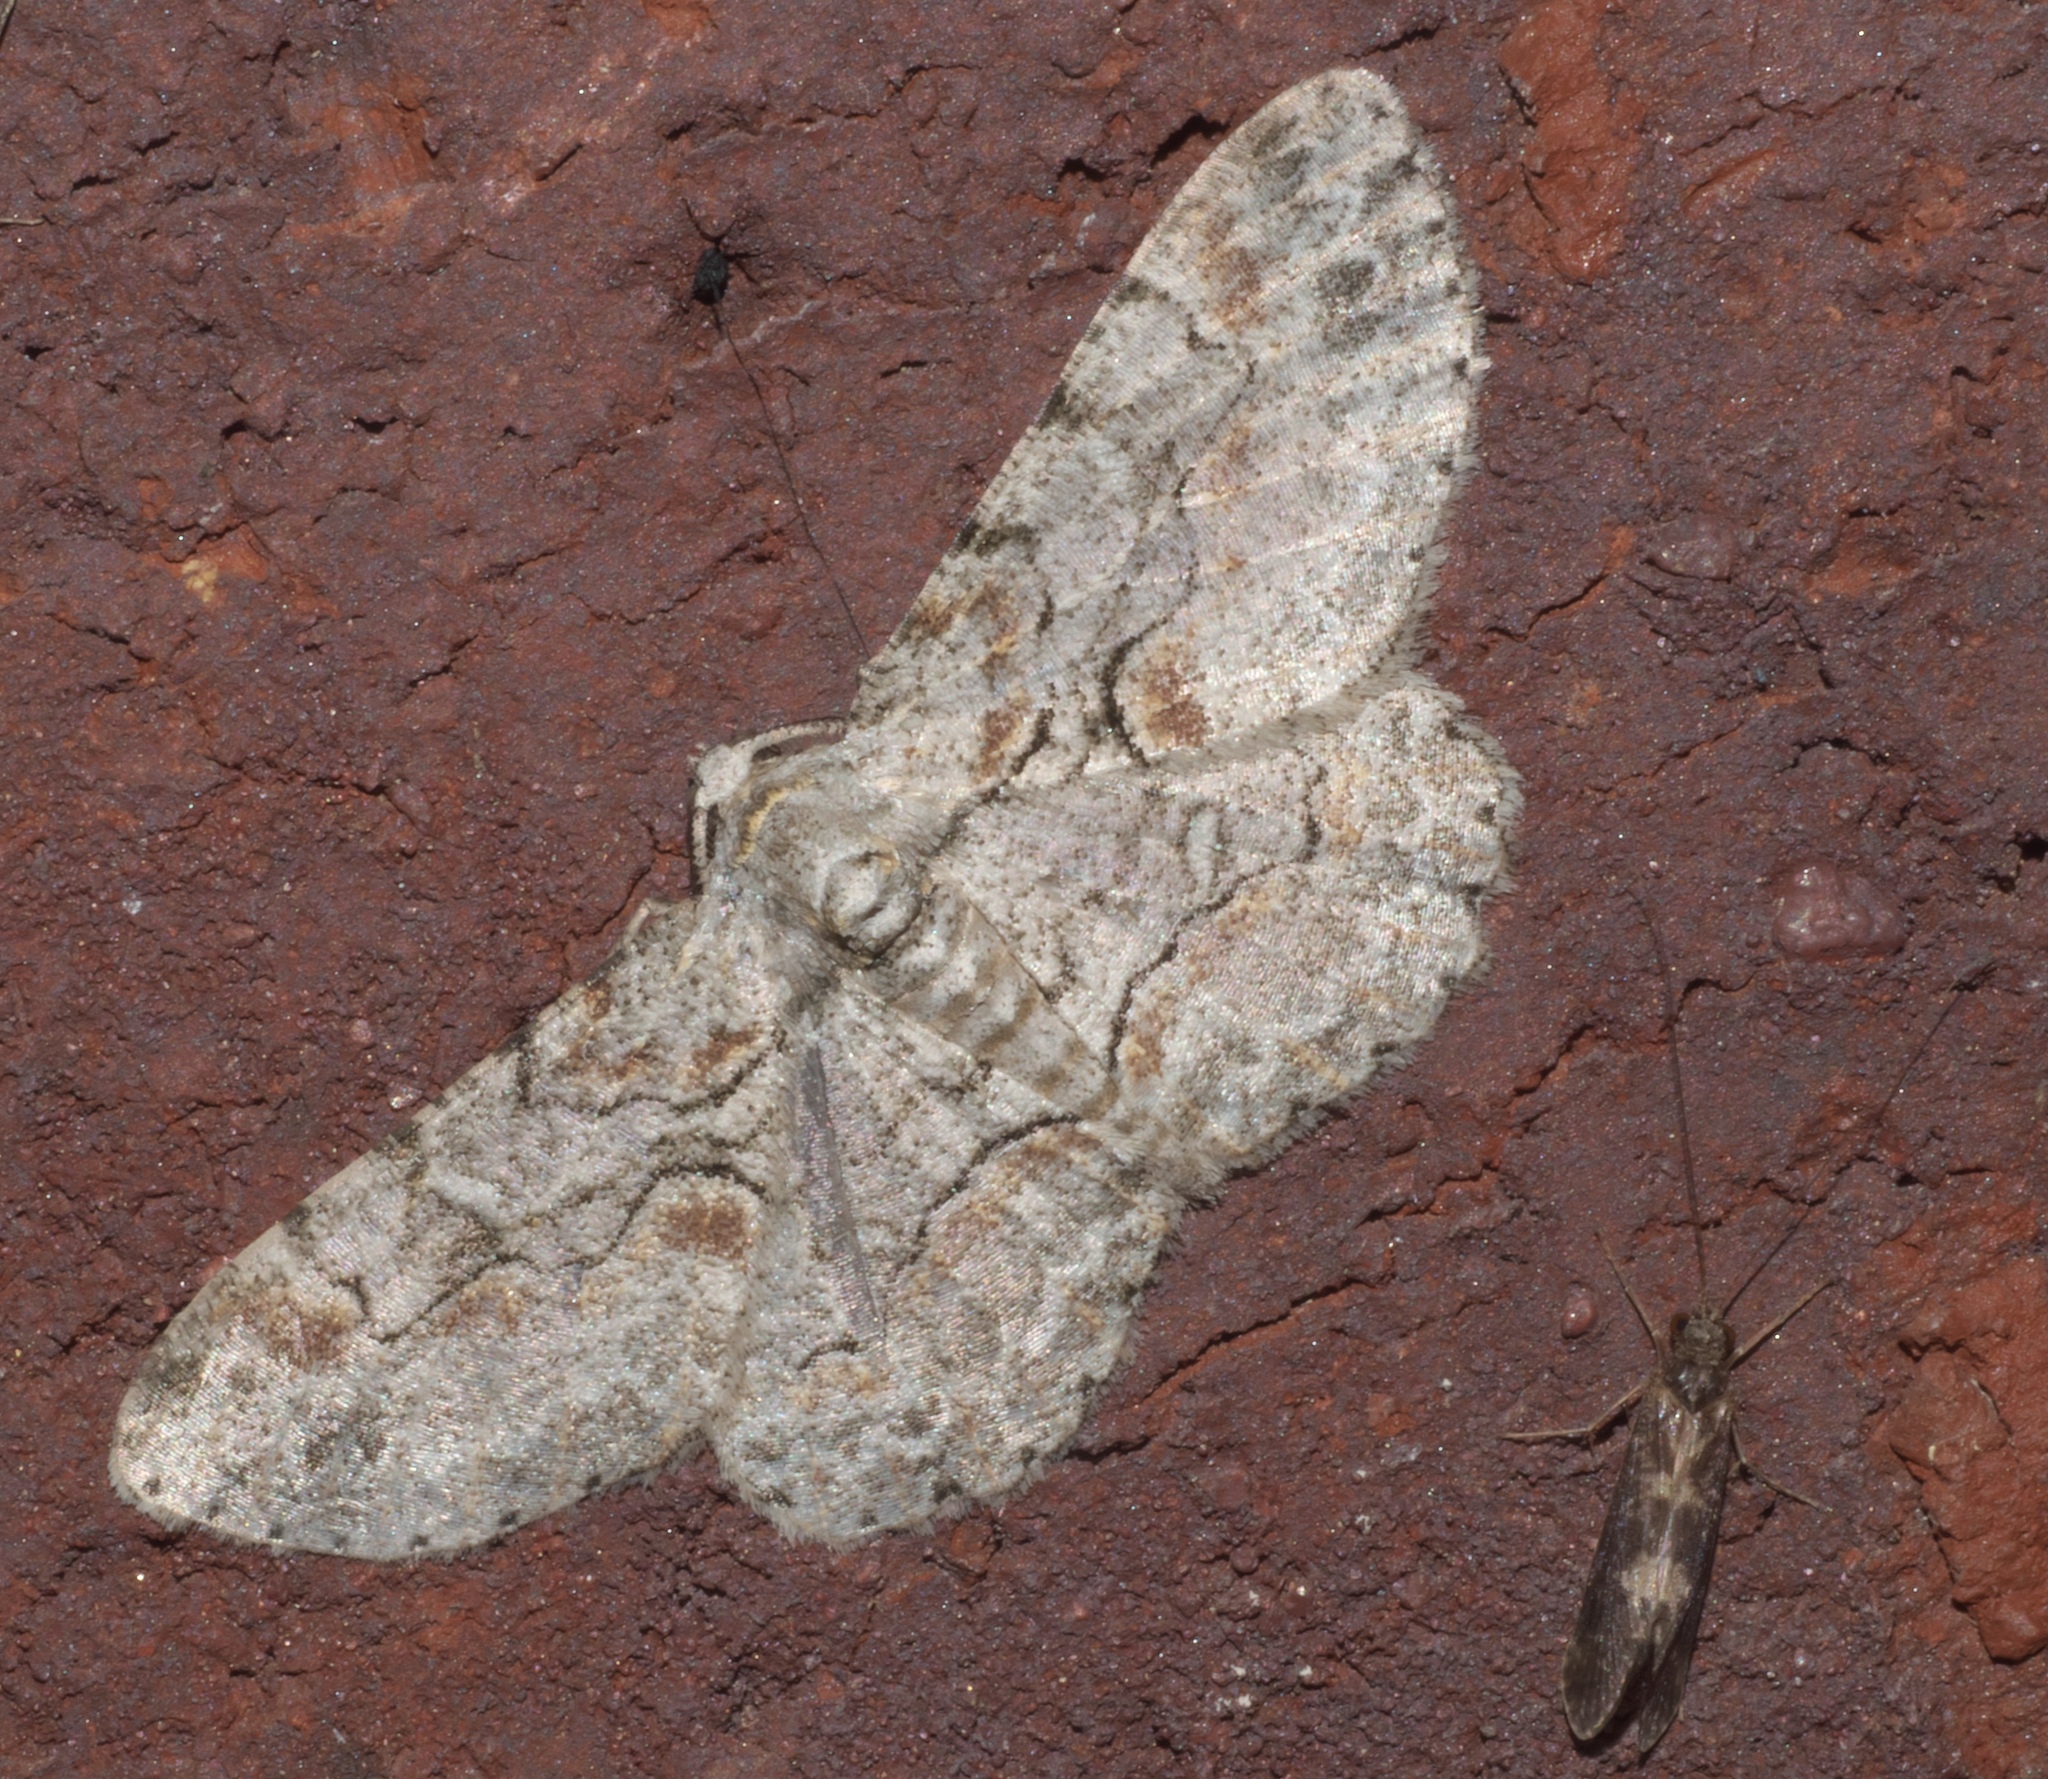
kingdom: Animalia
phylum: Arthropoda
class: Insecta
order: Lepidoptera
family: Geometridae
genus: Iridopsis
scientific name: Iridopsis defectaria
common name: Brown-shaded gray
